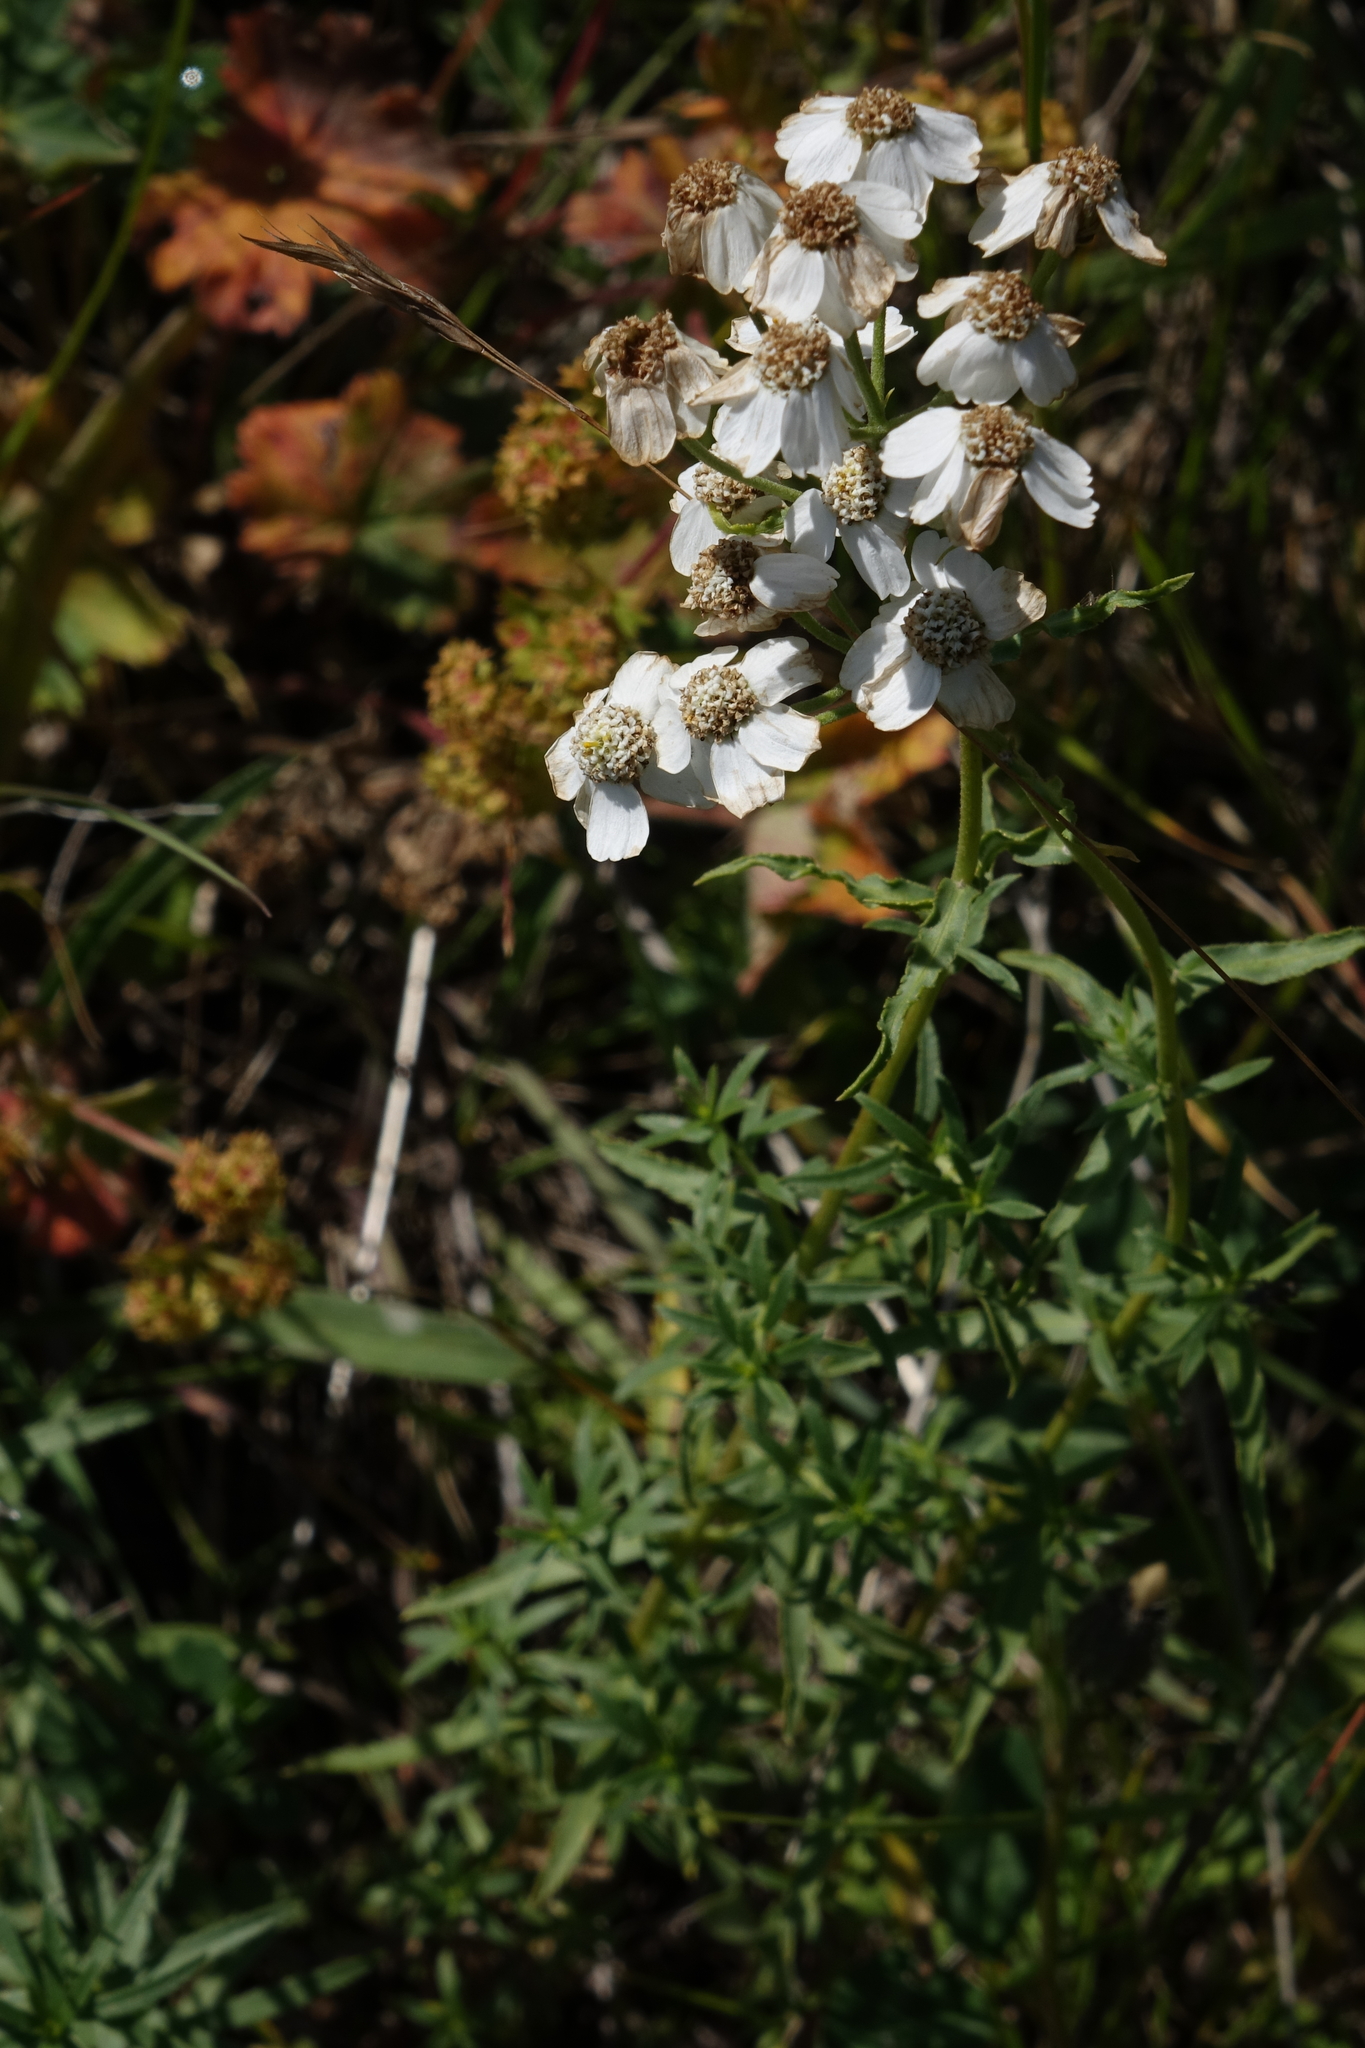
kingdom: Plantae
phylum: Tracheophyta
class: Magnoliopsida
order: Asterales
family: Asteraceae
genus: Achillea
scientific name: Achillea ptarmicifolia
